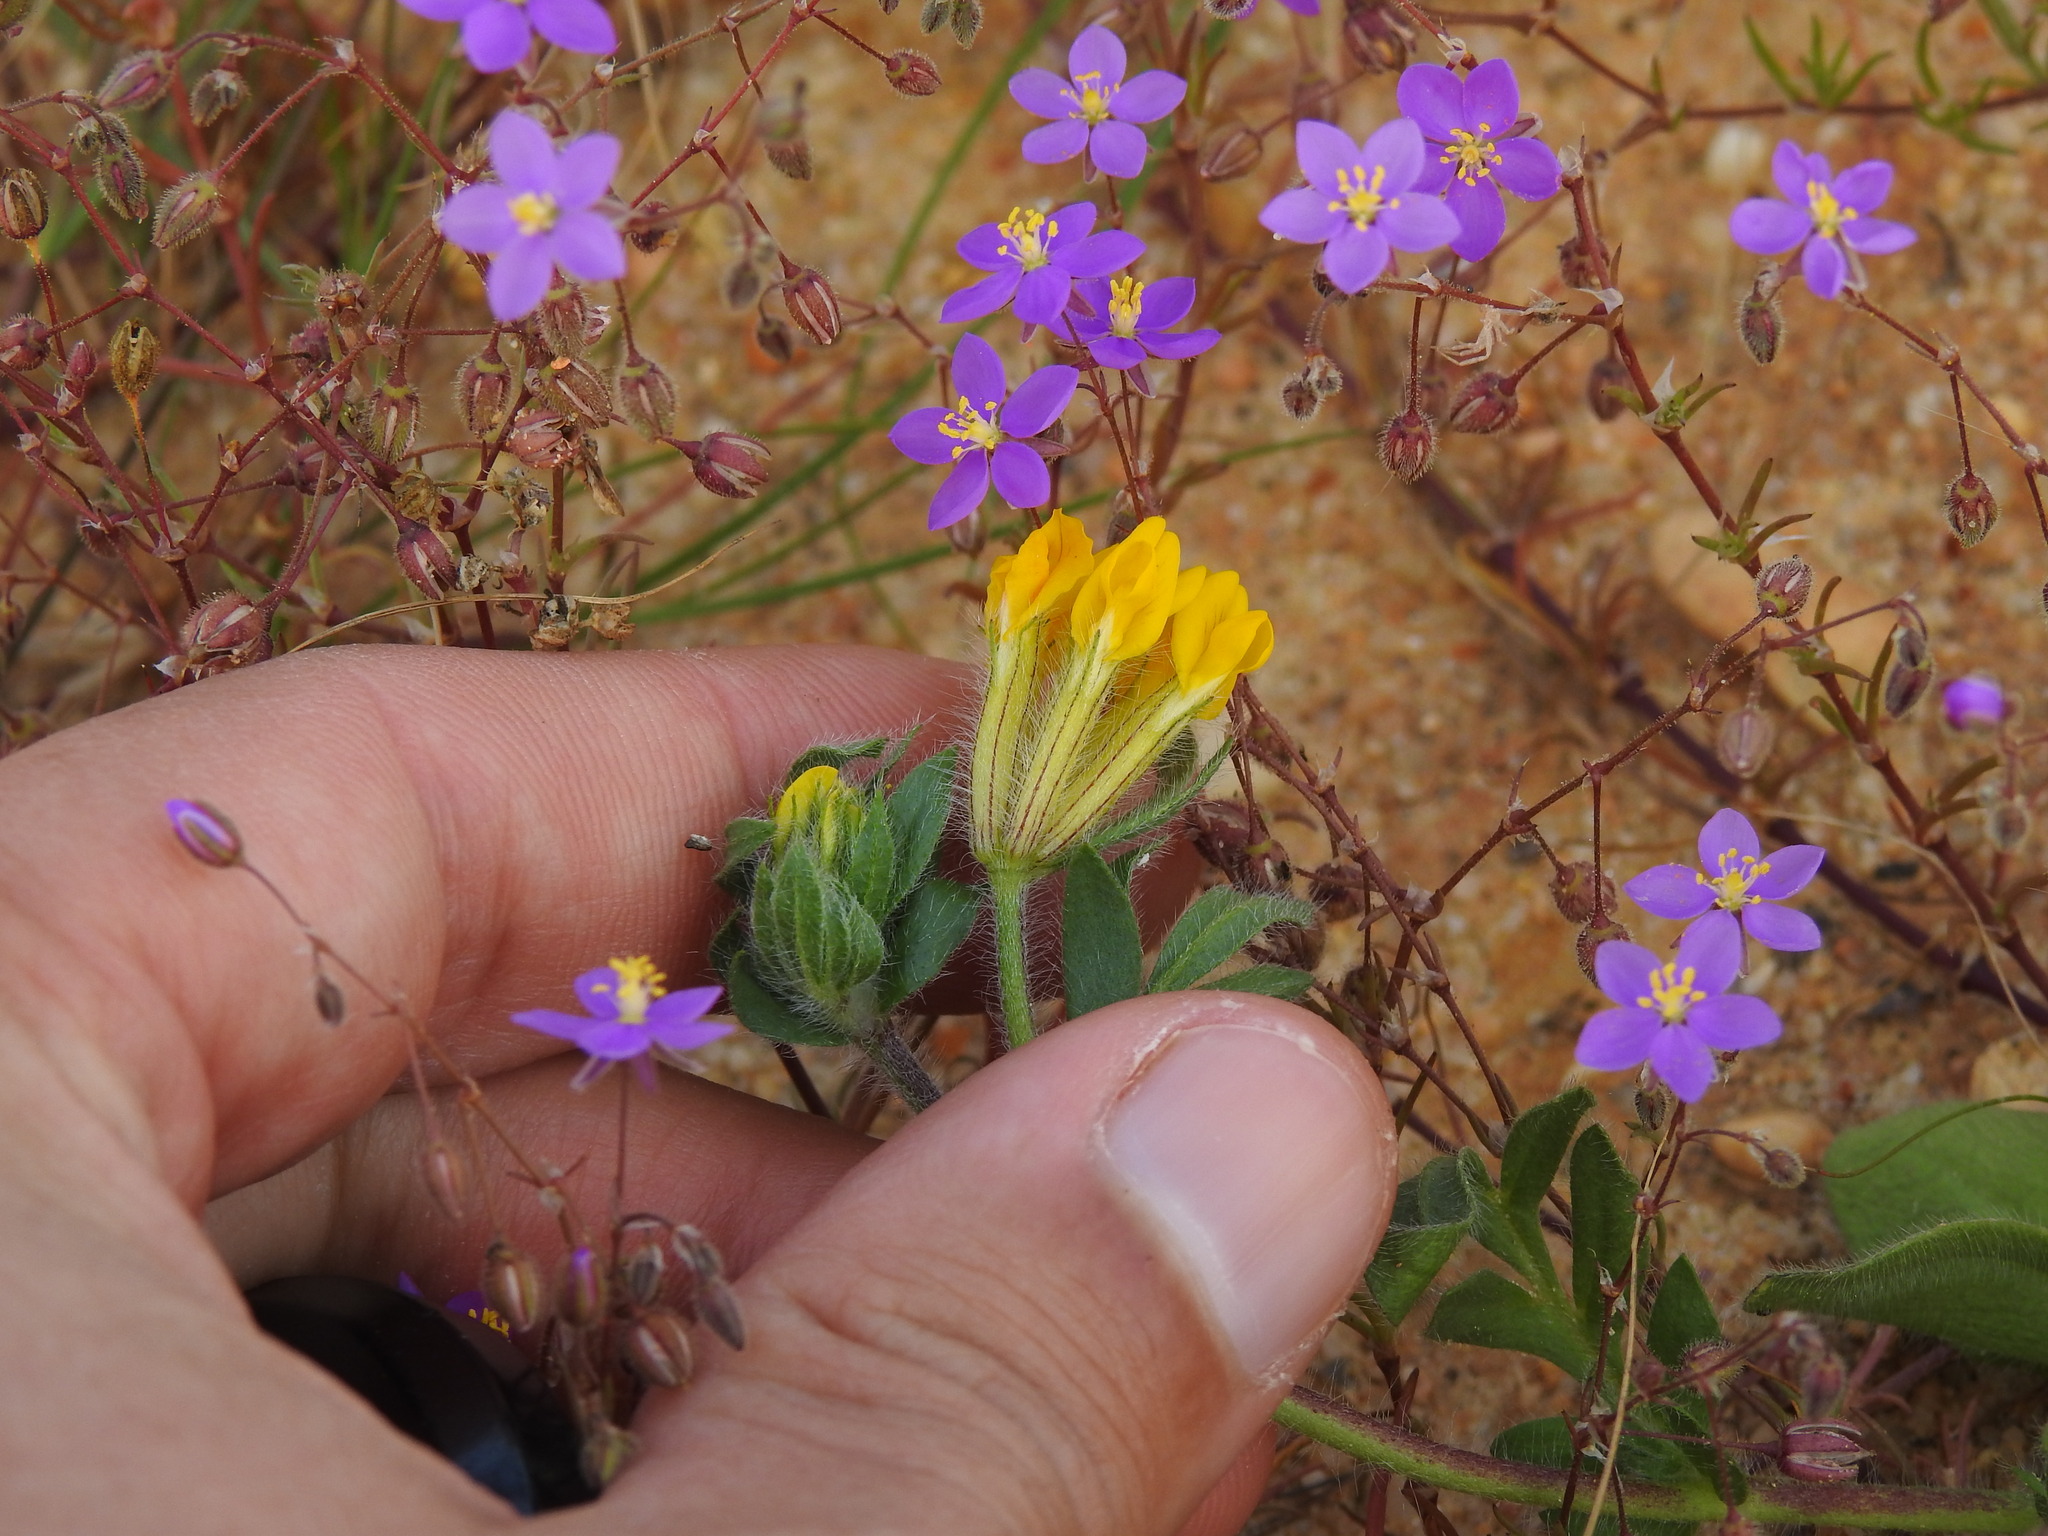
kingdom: Plantae
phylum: Tracheophyta
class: Magnoliopsida
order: Fabales
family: Fabaceae
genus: Anthyllis
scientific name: Anthyllis lotoides
